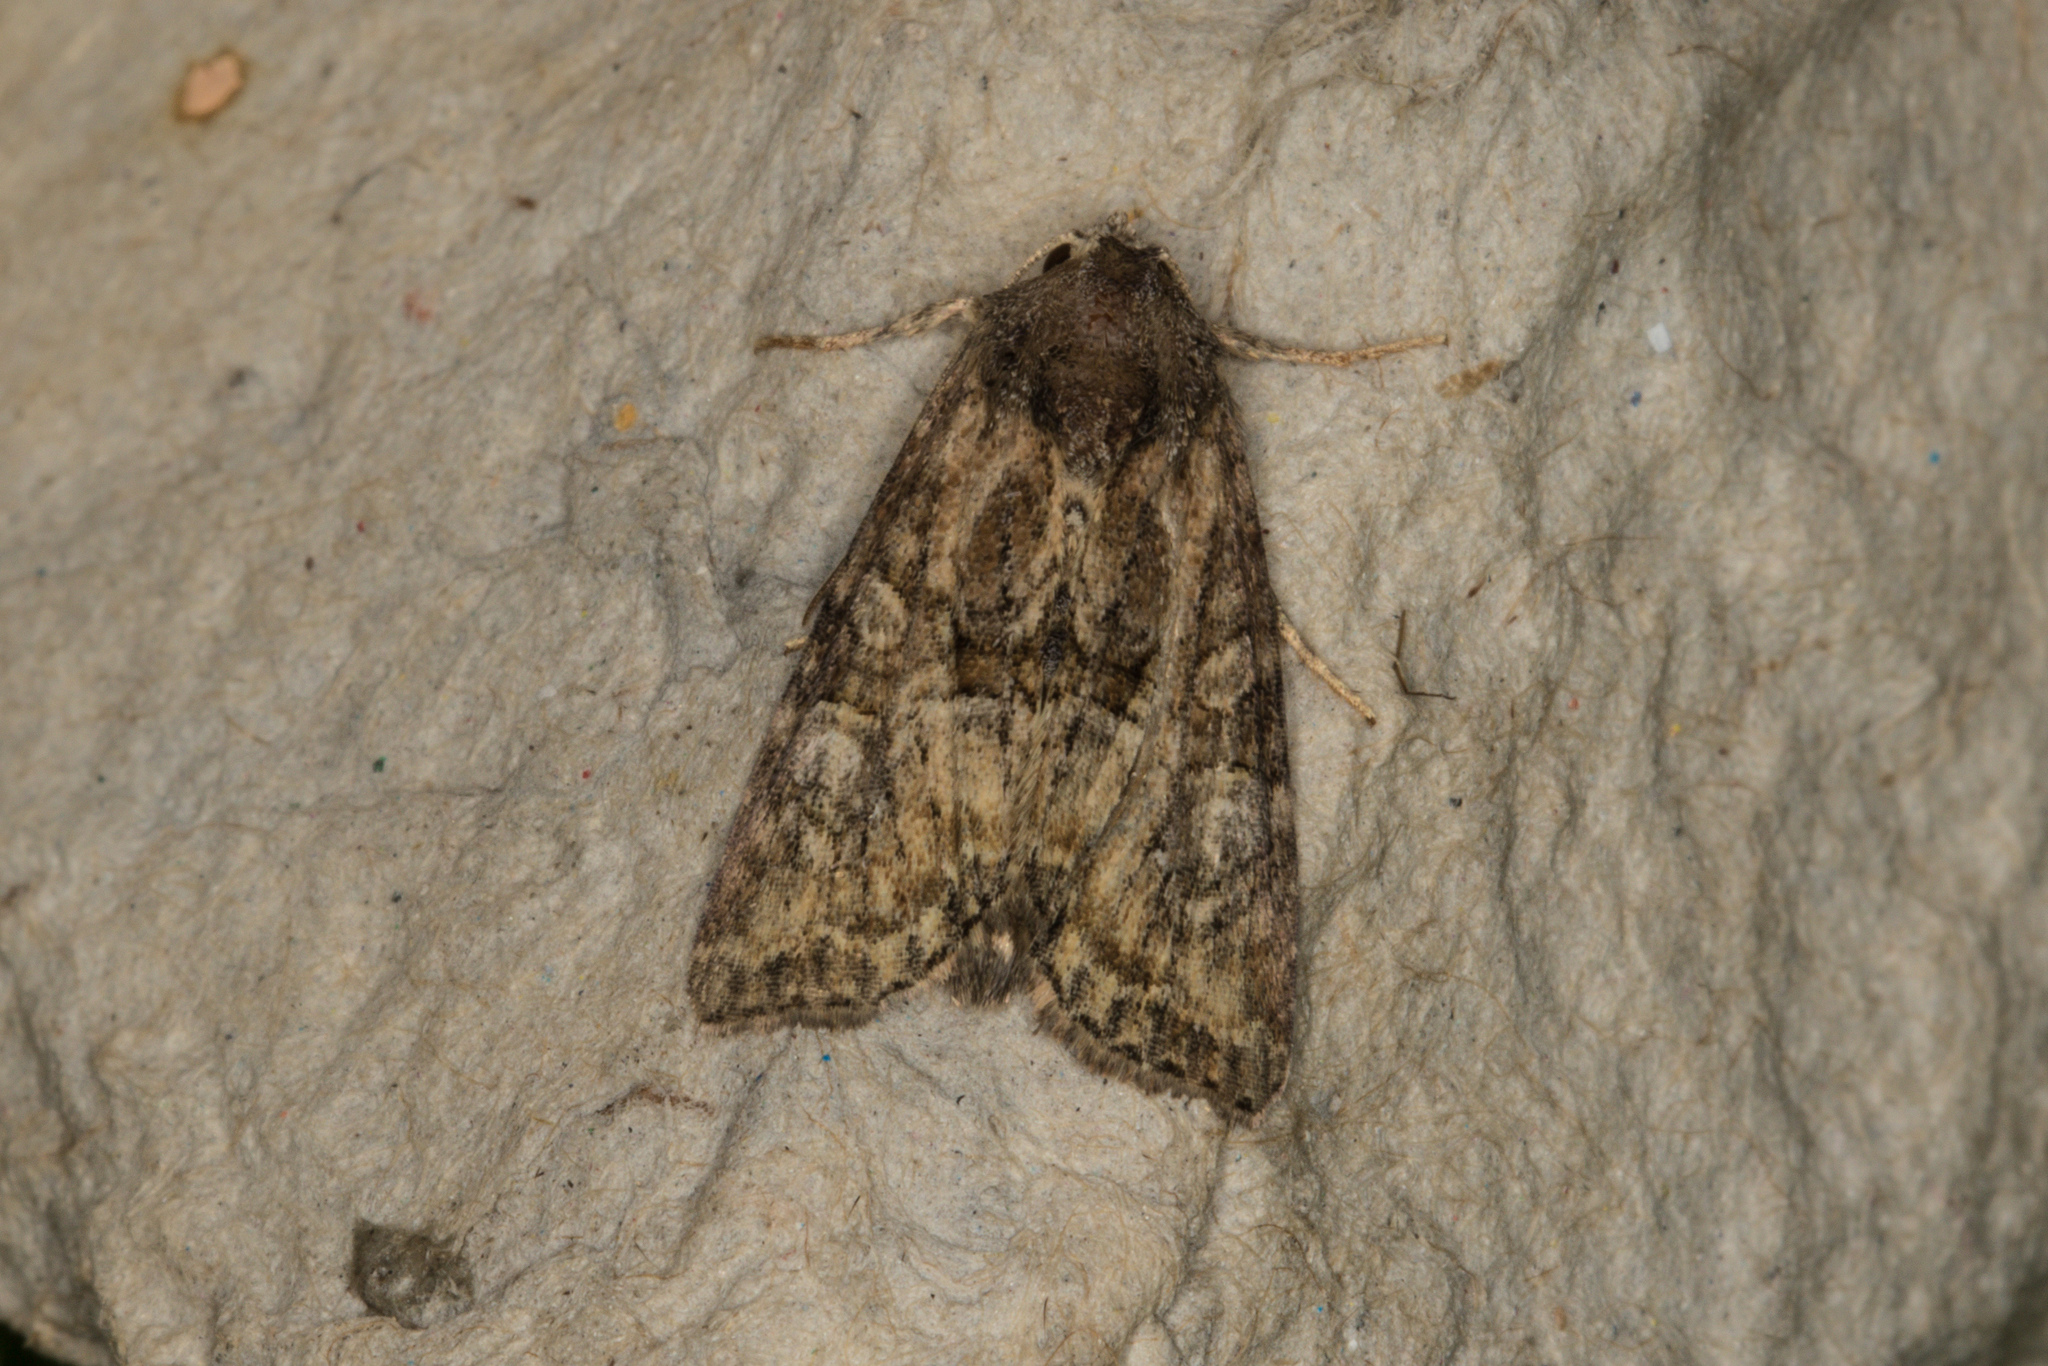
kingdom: Animalia
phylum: Arthropoda
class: Insecta
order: Lepidoptera
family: Noctuidae
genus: Mesoligia
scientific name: Mesoligia furuncula
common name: Cloaked minor
